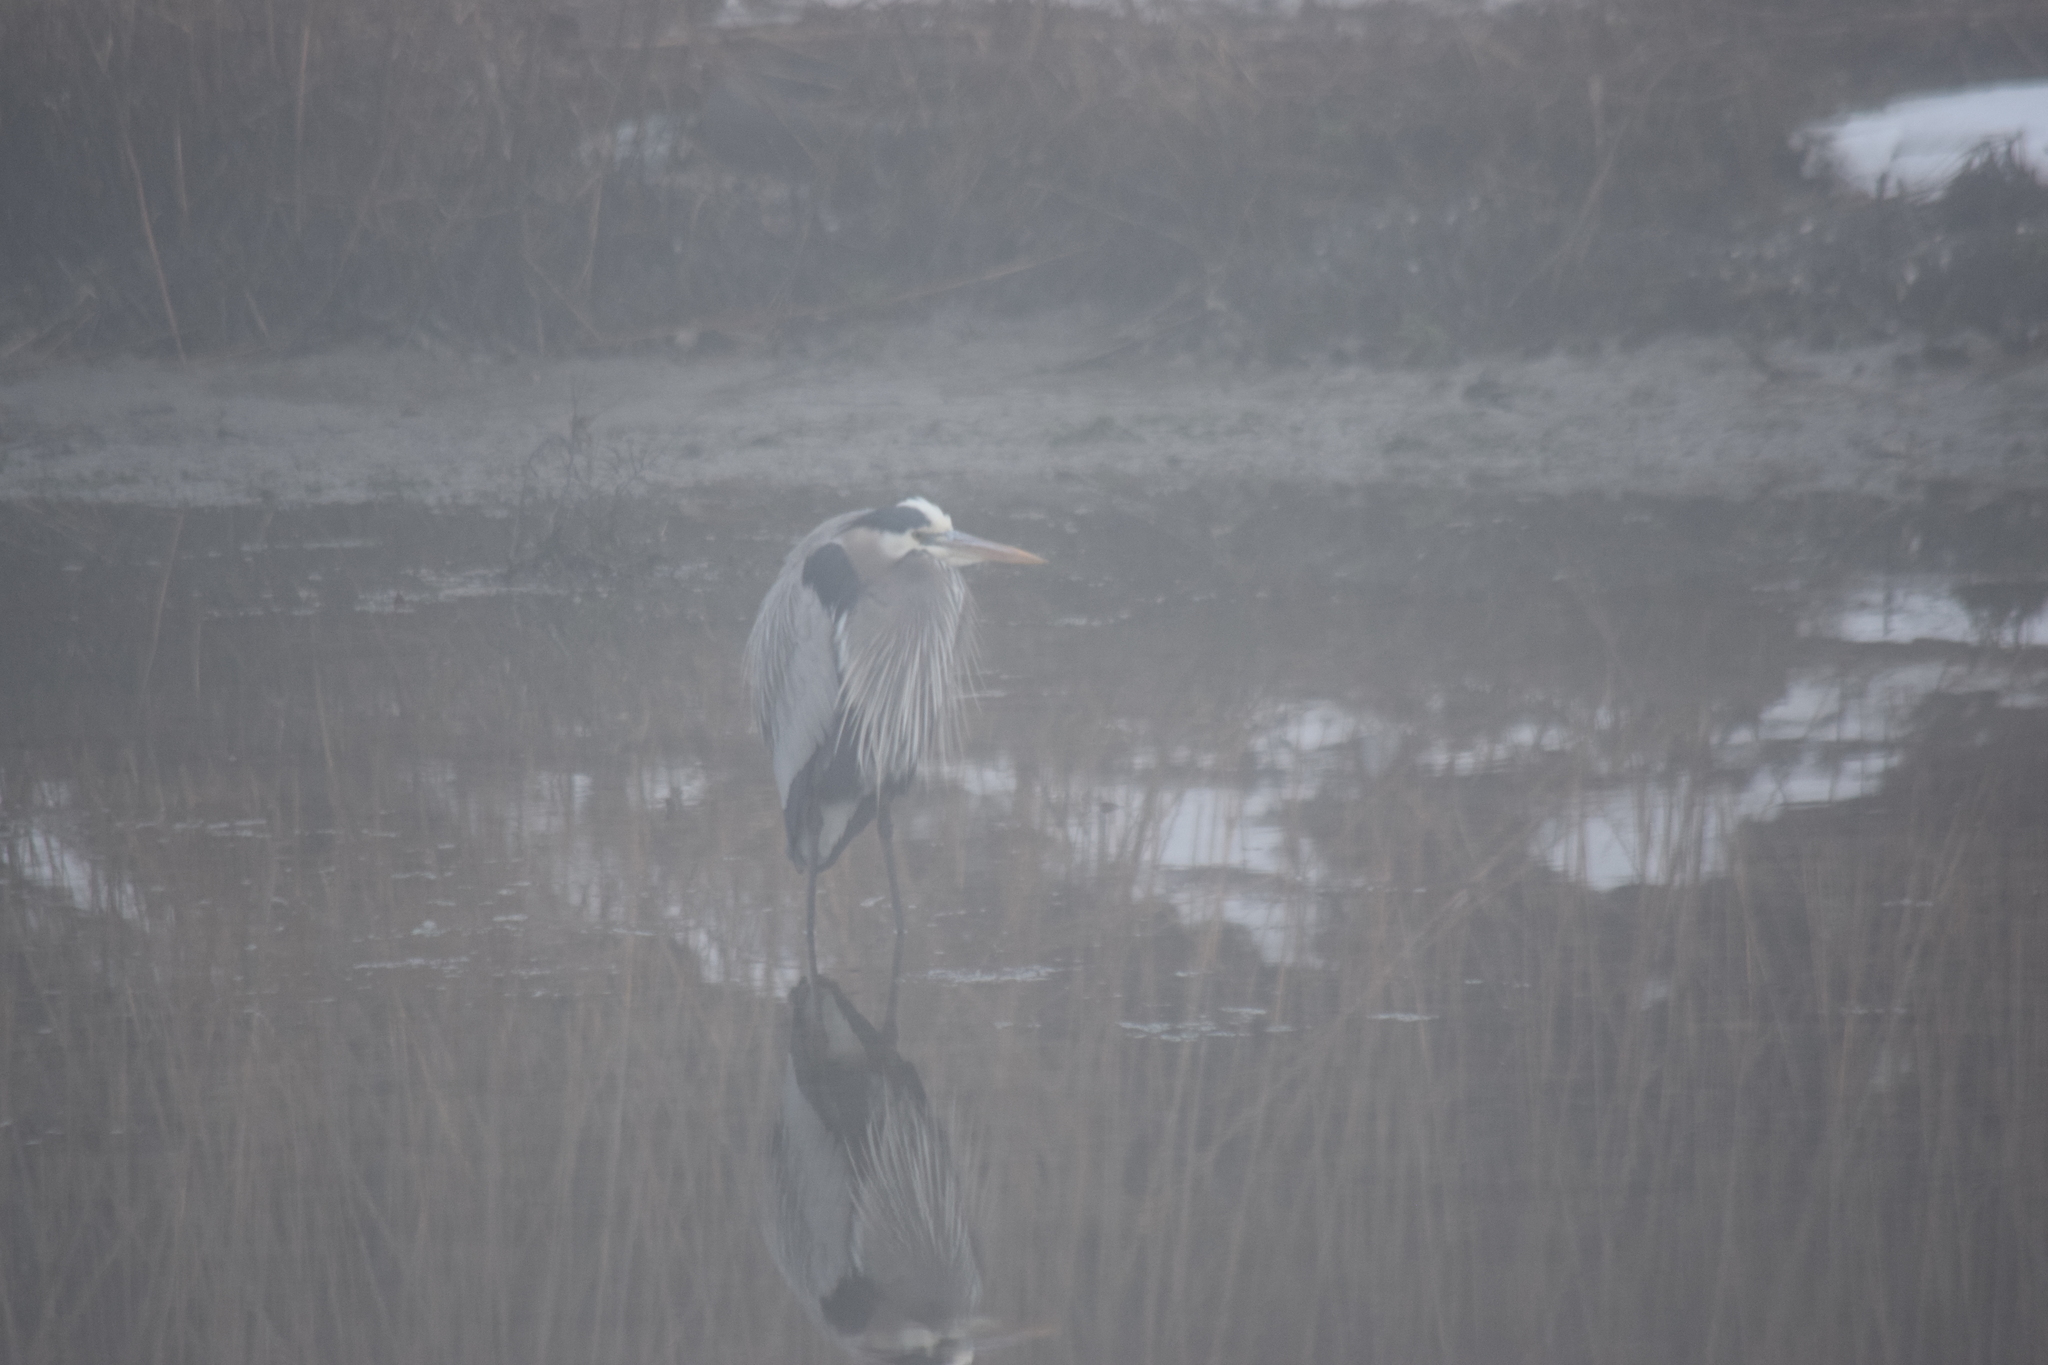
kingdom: Animalia
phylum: Chordata
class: Aves
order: Pelecaniformes
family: Ardeidae
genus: Ardea
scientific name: Ardea herodias
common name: Great blue heron
